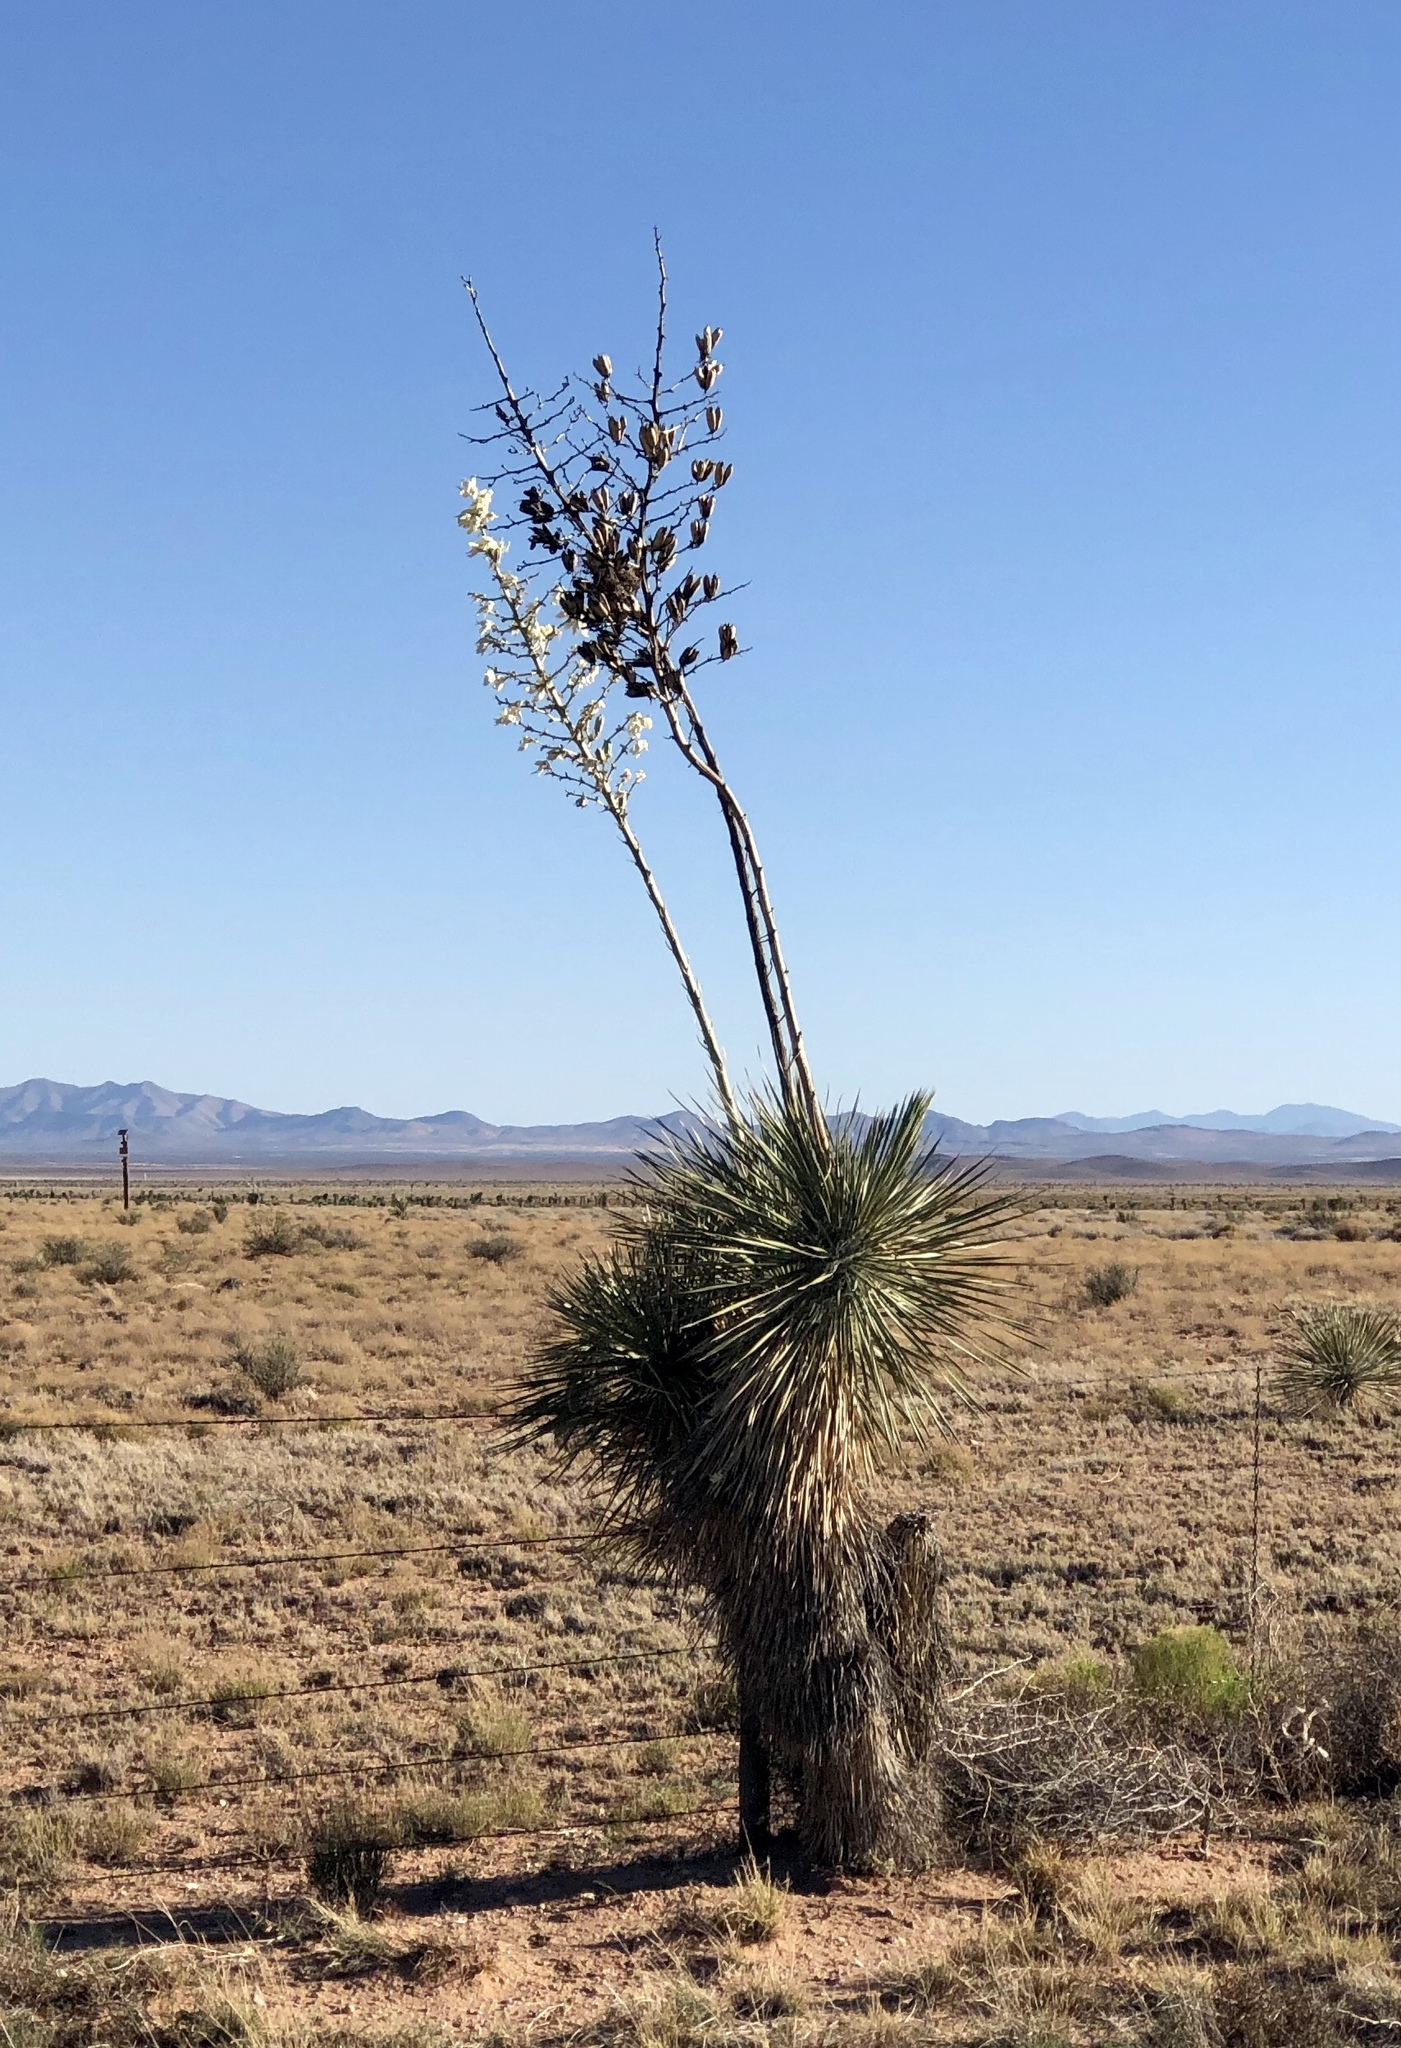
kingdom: Plantae
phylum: Tracheophyta
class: Liliopsida
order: Asparagales
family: Asparagaceae
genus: Yucca
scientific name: Yucca elata
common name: Palmella
